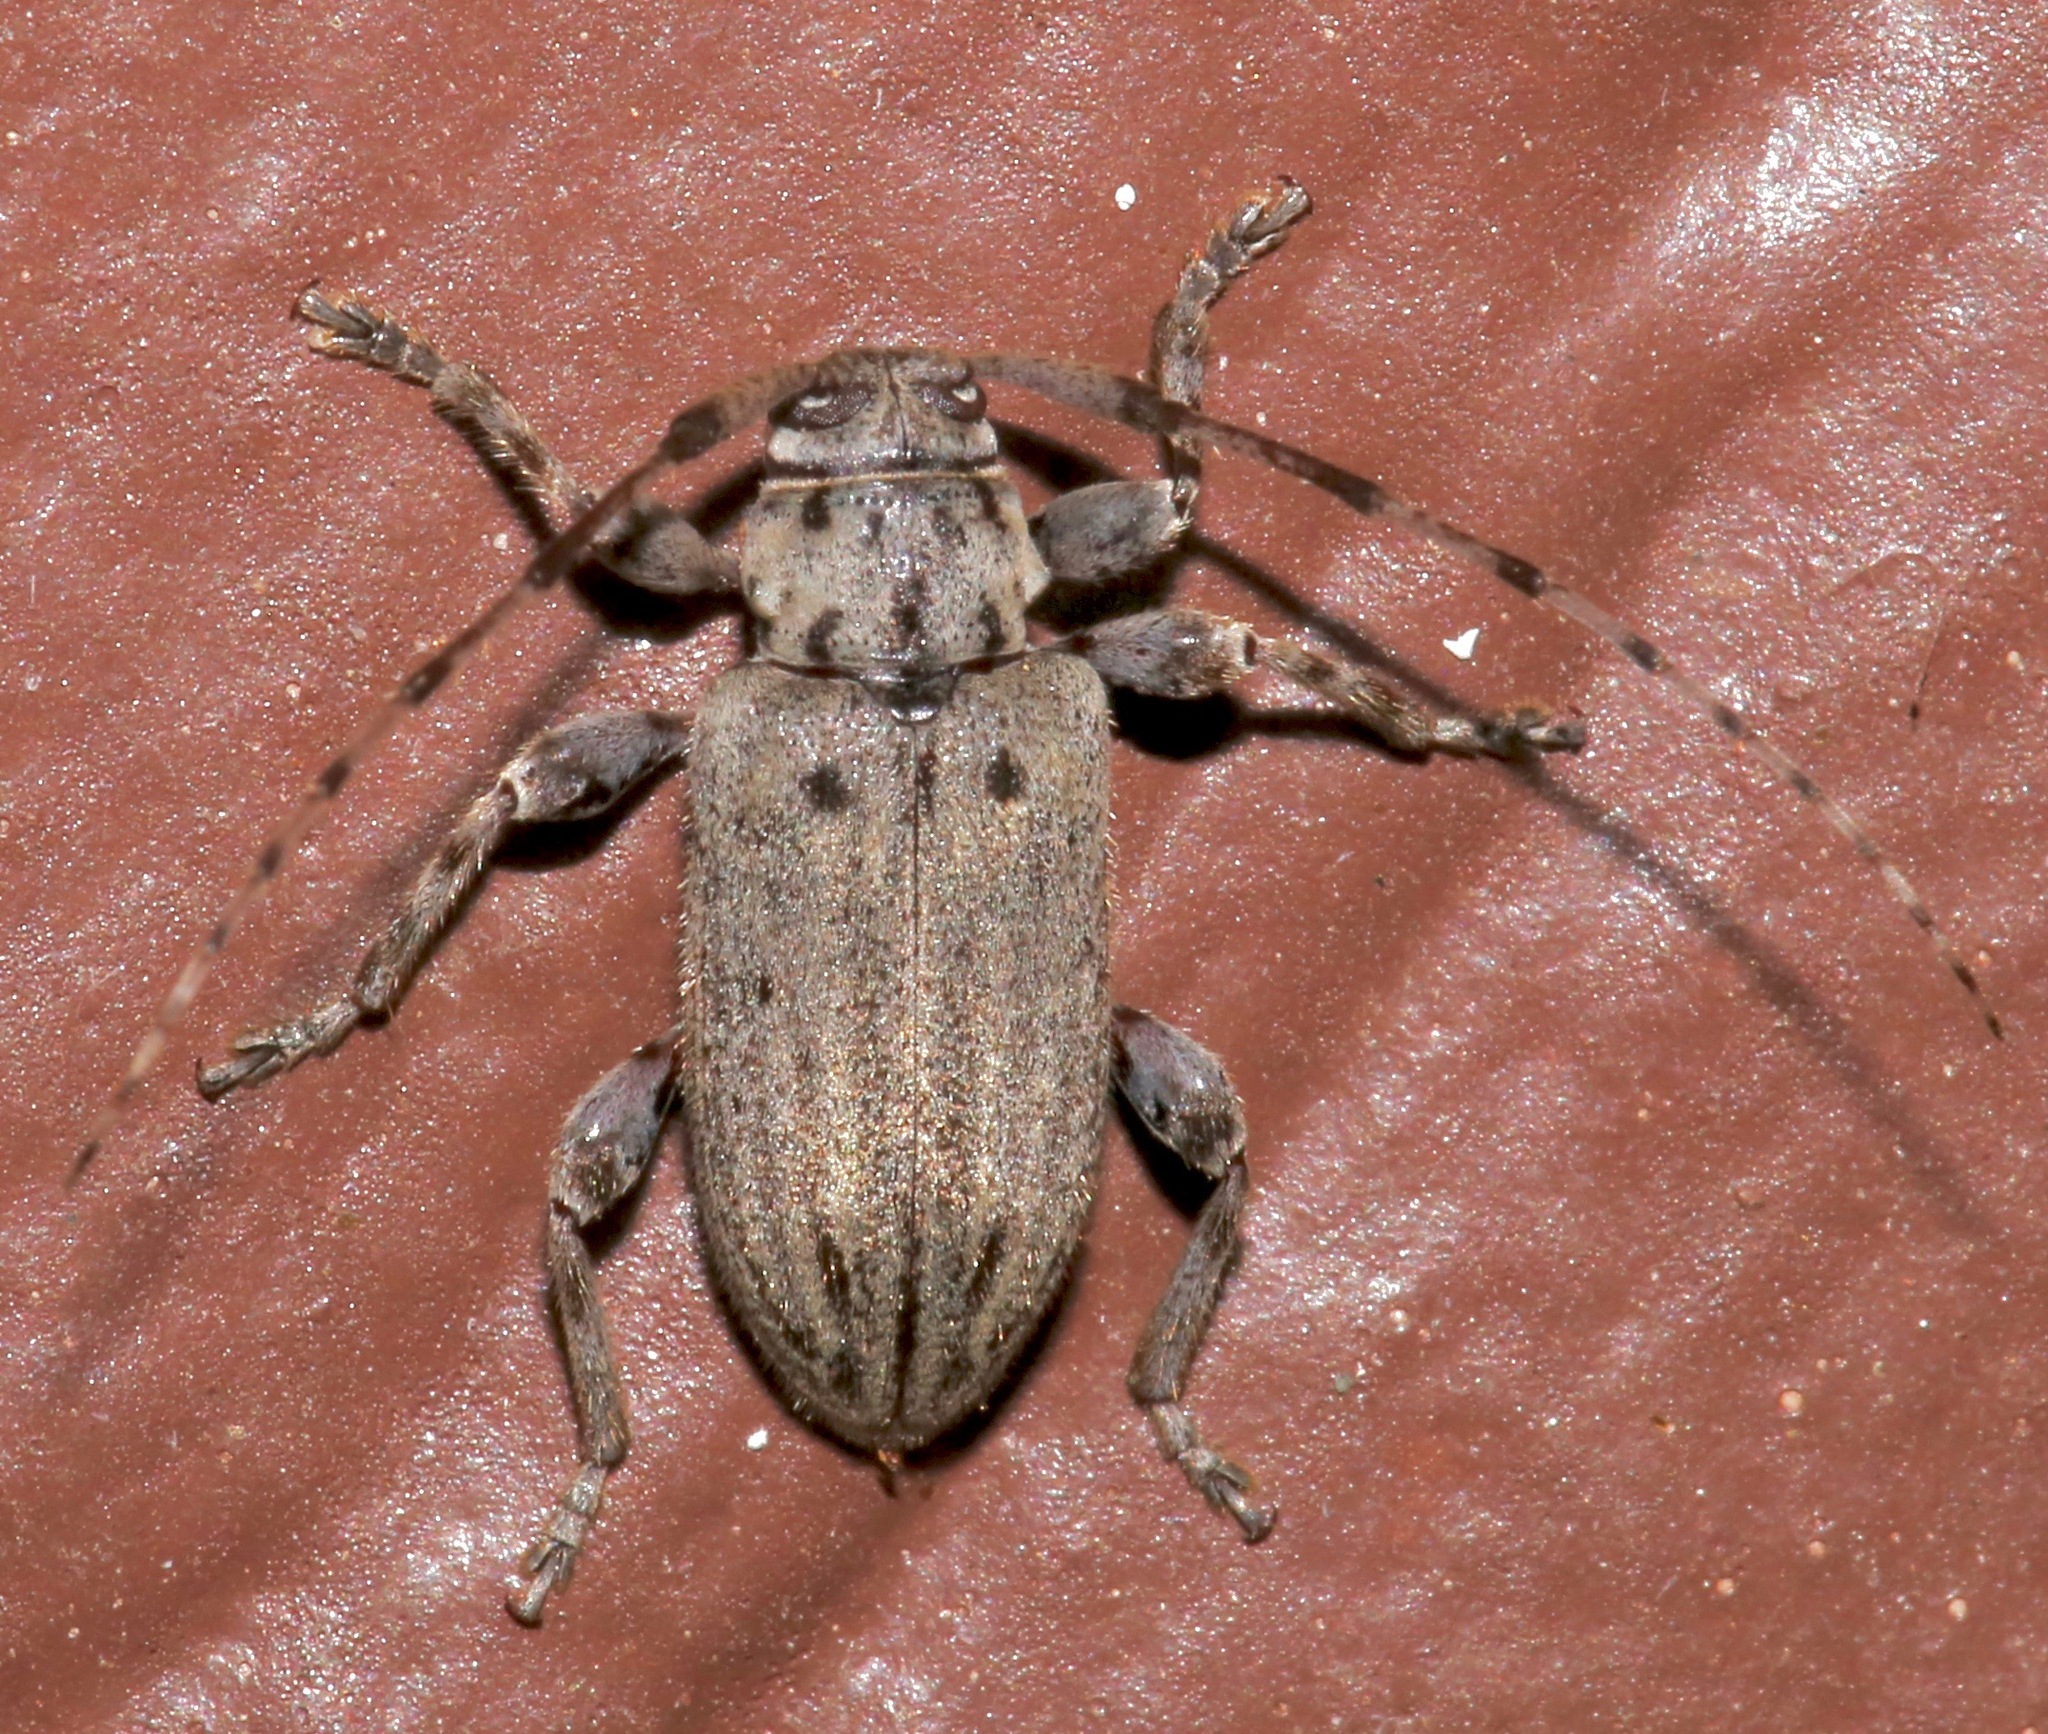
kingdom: Animalia
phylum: Arthropoda
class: Insecta
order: Coleoptera
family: Cerambycidae
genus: Glaucotes
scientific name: Glaucotes yuccivorus
